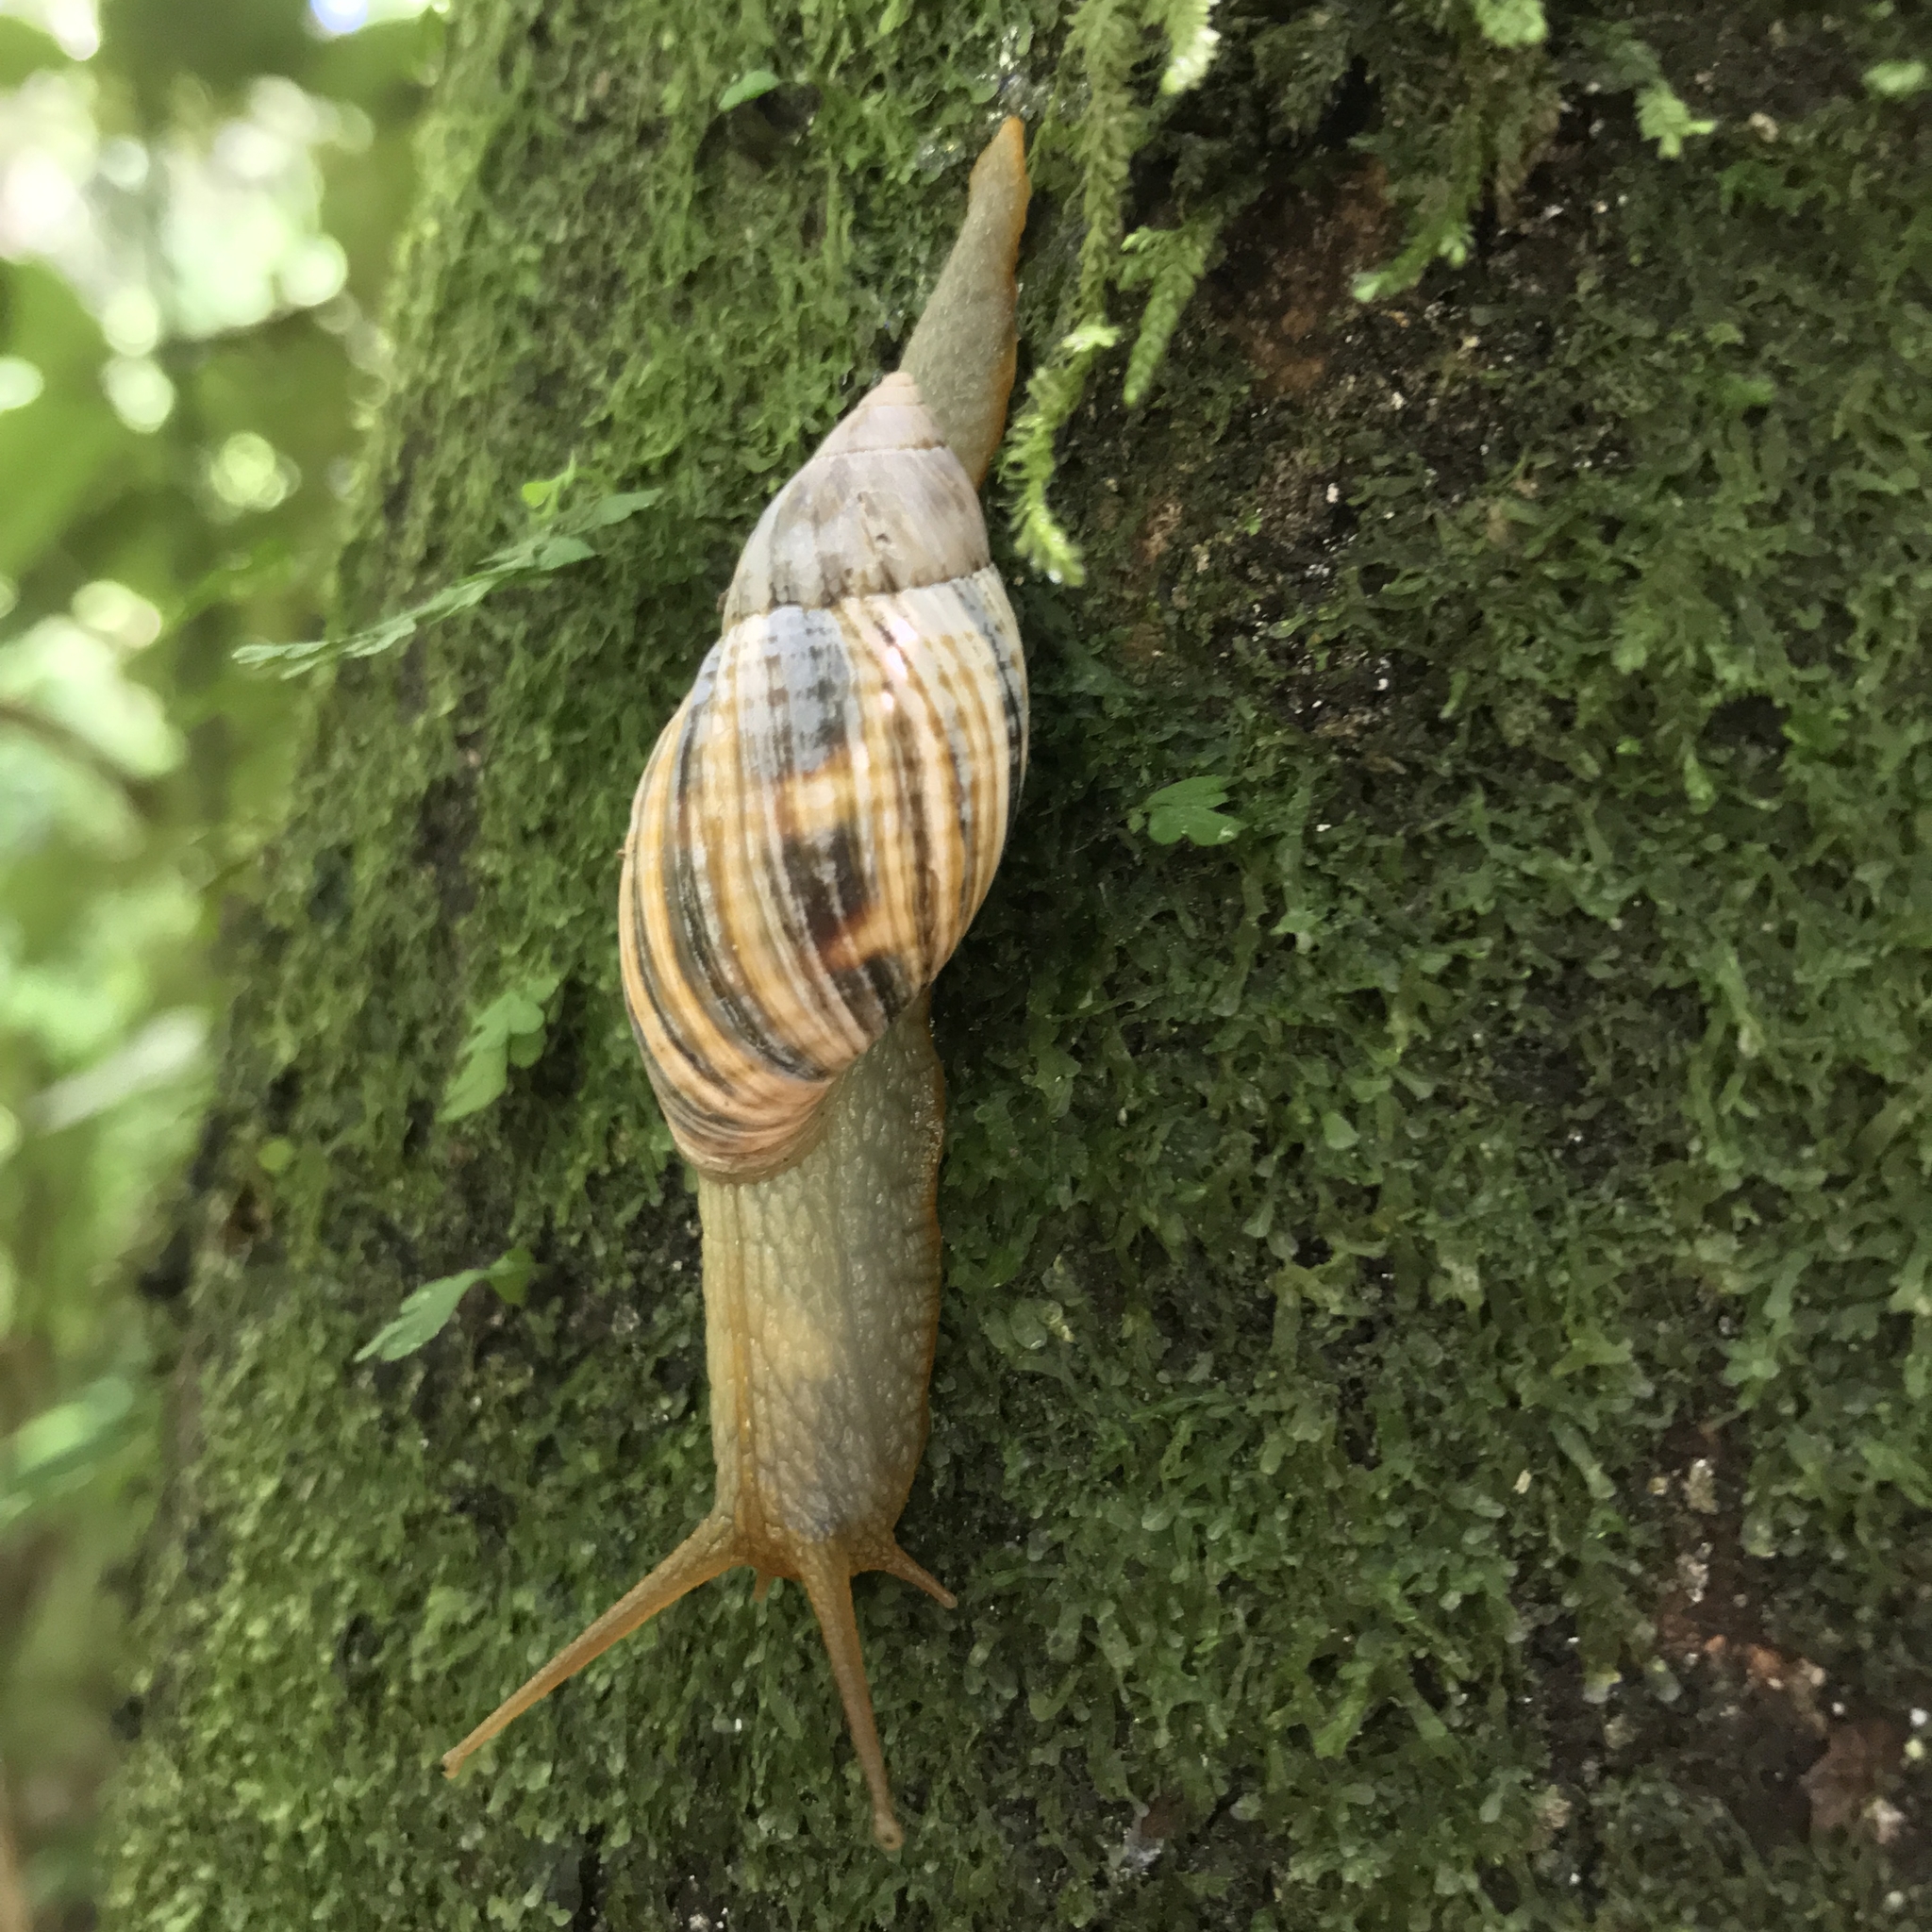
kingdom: Animalia
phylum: Mollusca
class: Gastropoda
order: Stylommatophora
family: Bothriembryontidae
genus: Plectostylus
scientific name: Plectostylus
